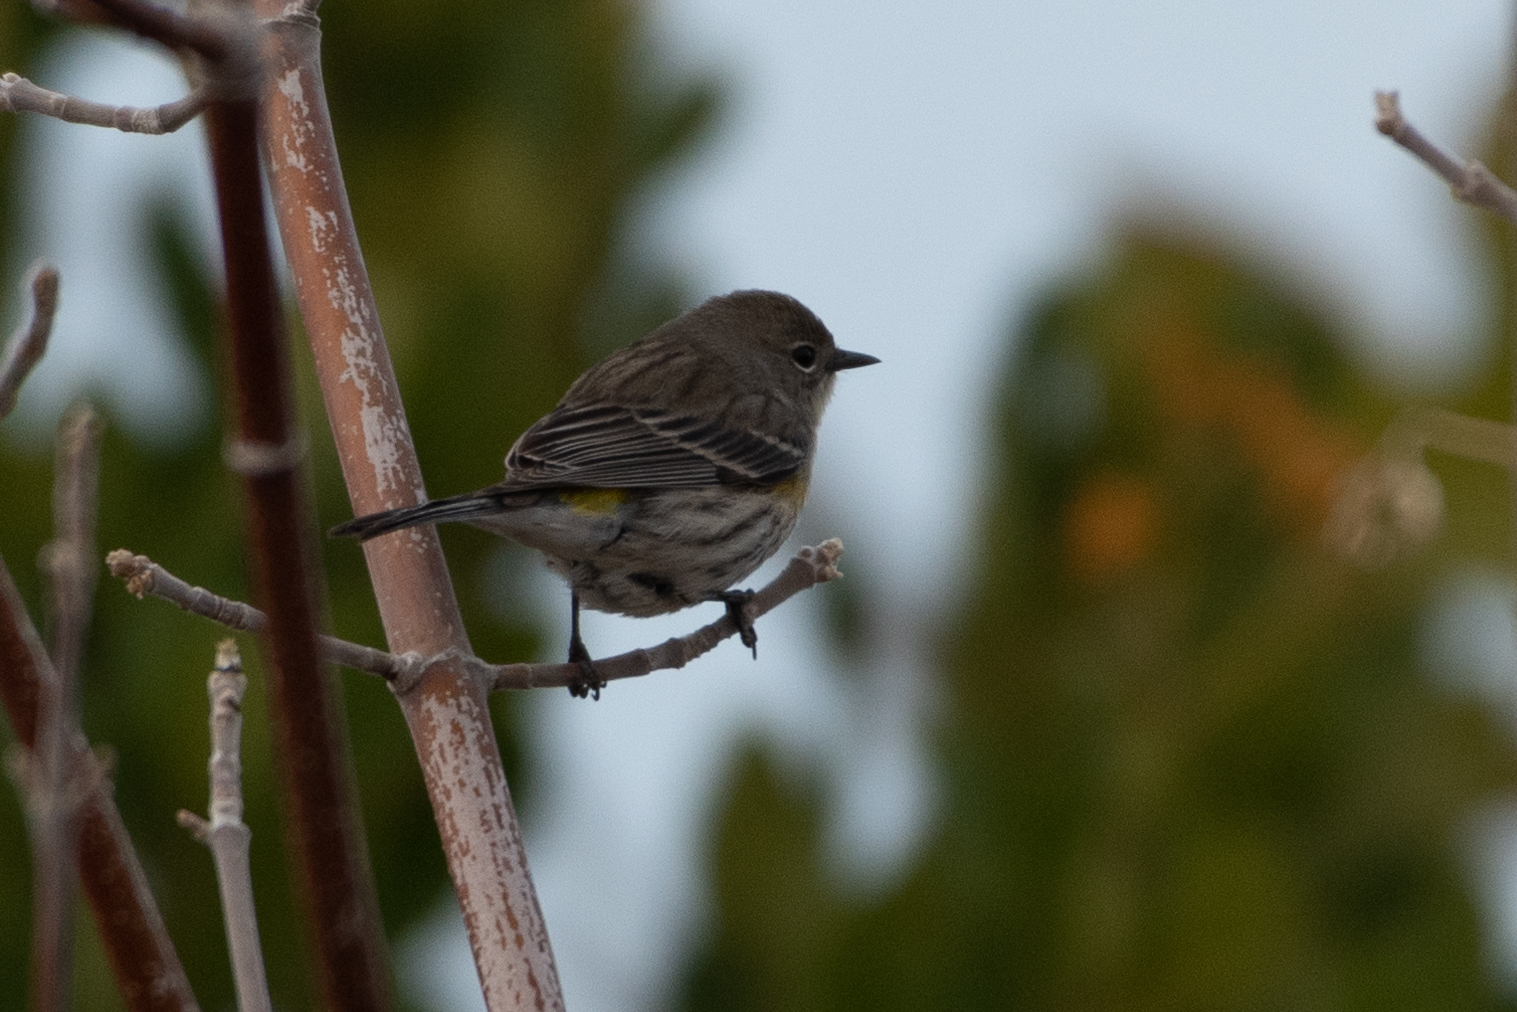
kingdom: Animalia
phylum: Chordata
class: Aves
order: Passeriformes
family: Parulidae
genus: Setophaga
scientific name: Setophaga coronata
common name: Myrtle warbler
